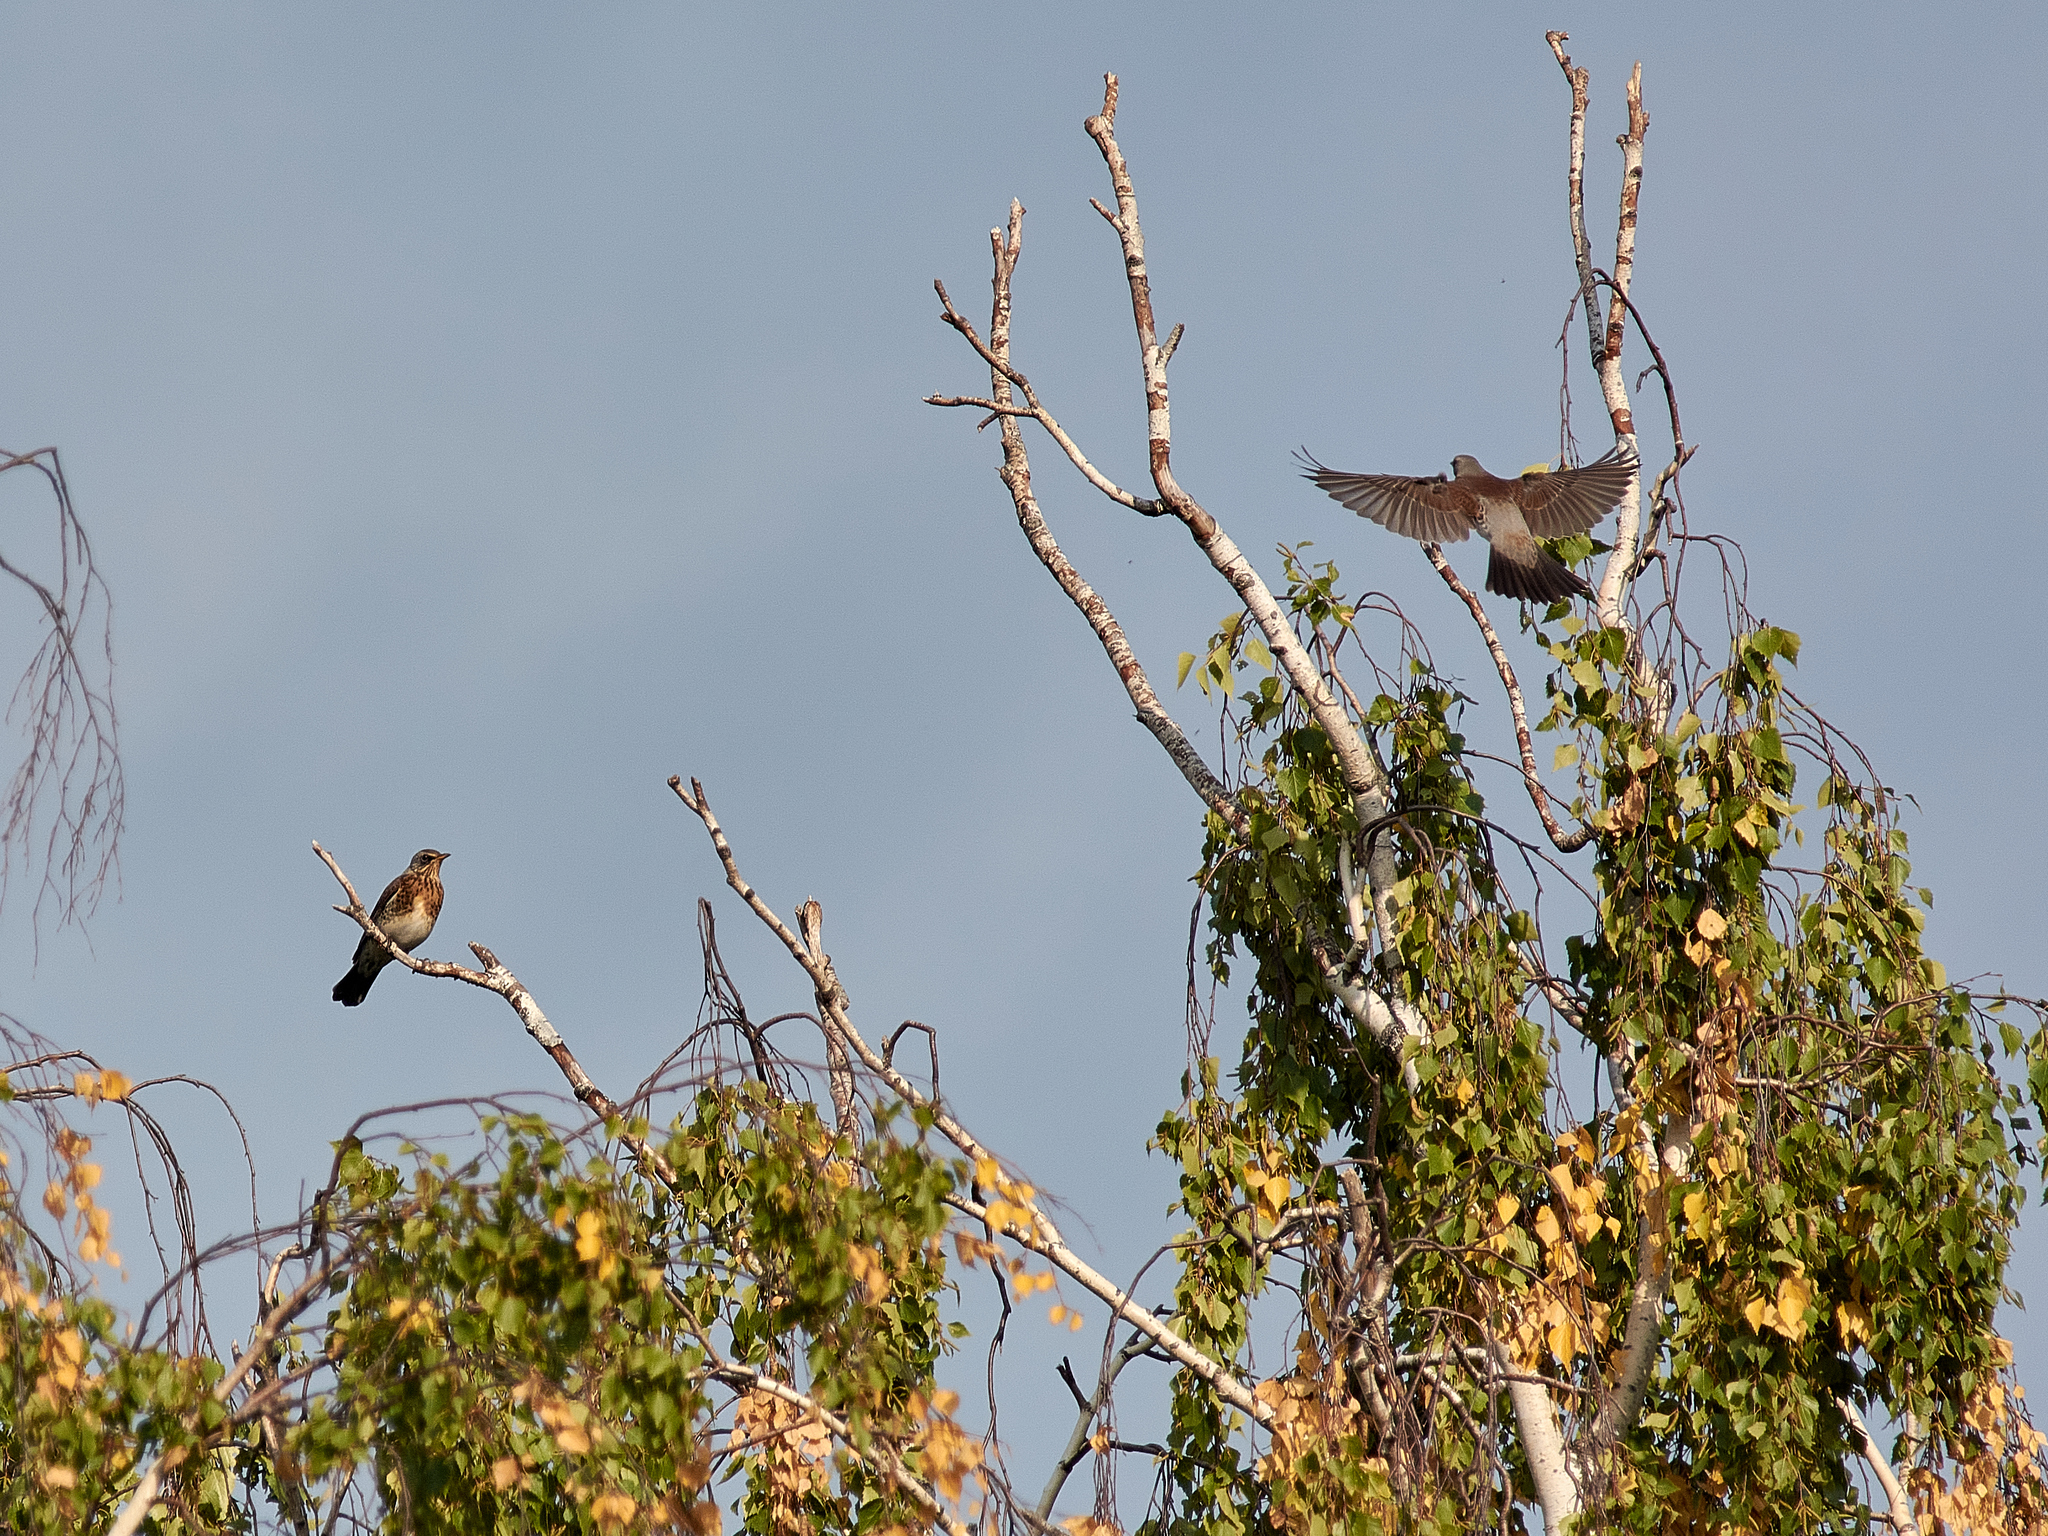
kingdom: Animalia
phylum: Chordata
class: Aves
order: Passeriformes
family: Turdidae
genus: Turdus
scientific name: Turdus pilaris
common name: Fieldfare
